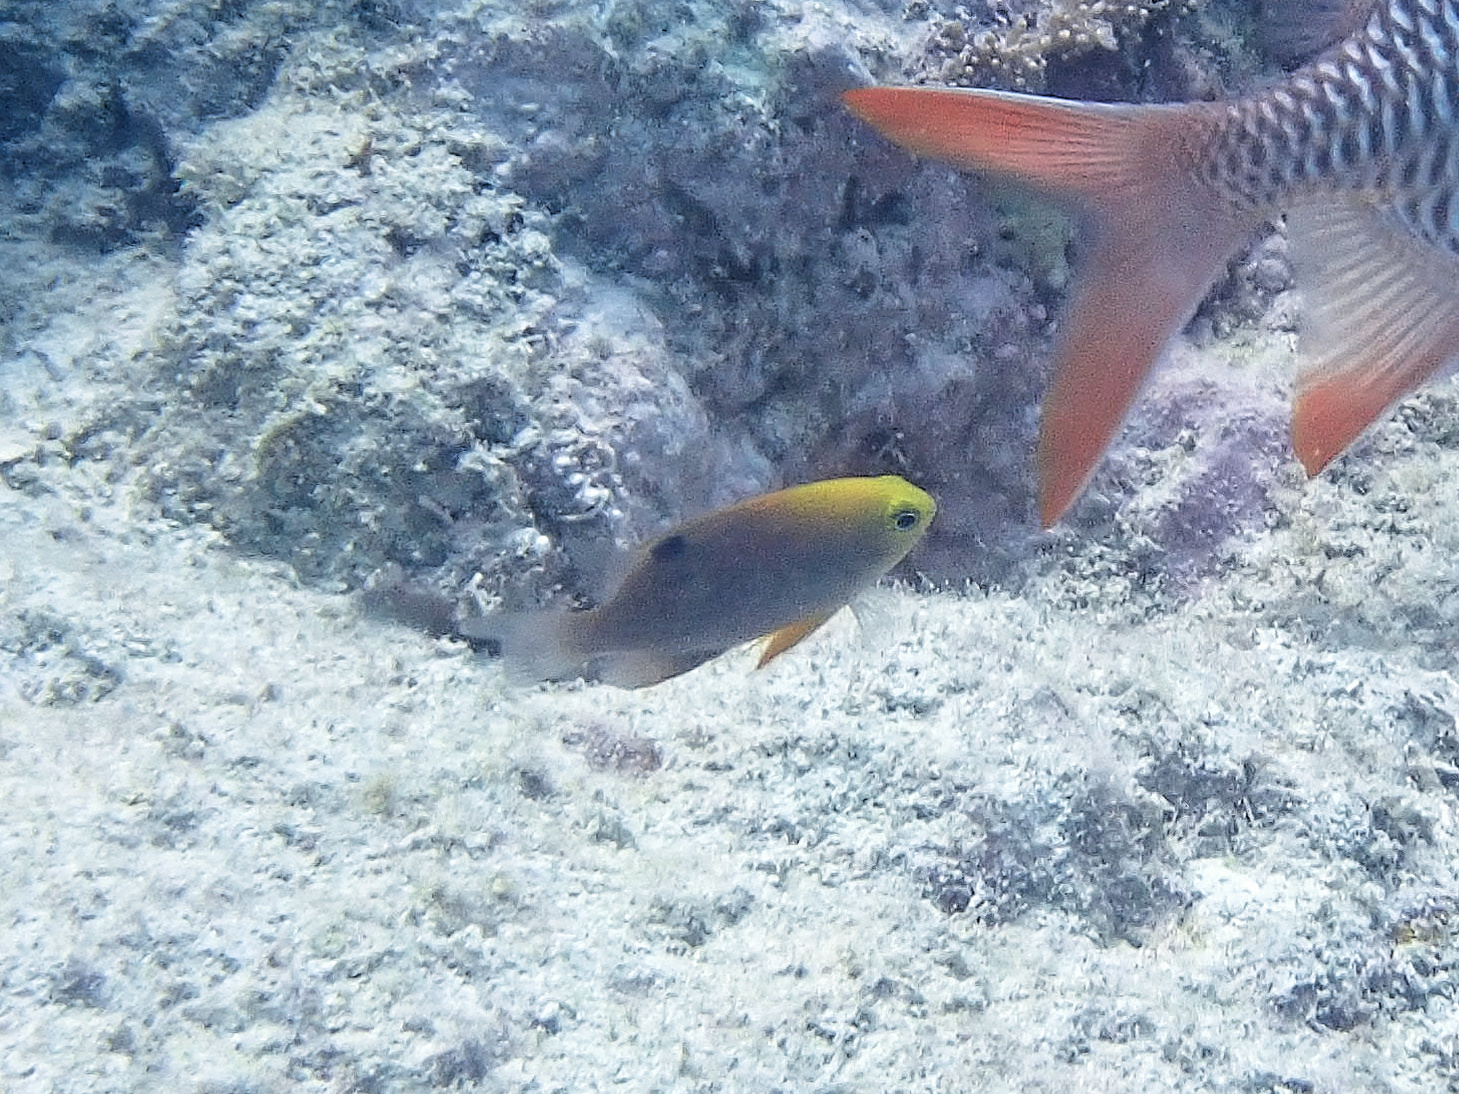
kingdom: Animalia
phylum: Chordata
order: Perciformes
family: Pomacentridae
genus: Chrysiptera
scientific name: Chrysiptera talboti
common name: Talbot's demoiselle
